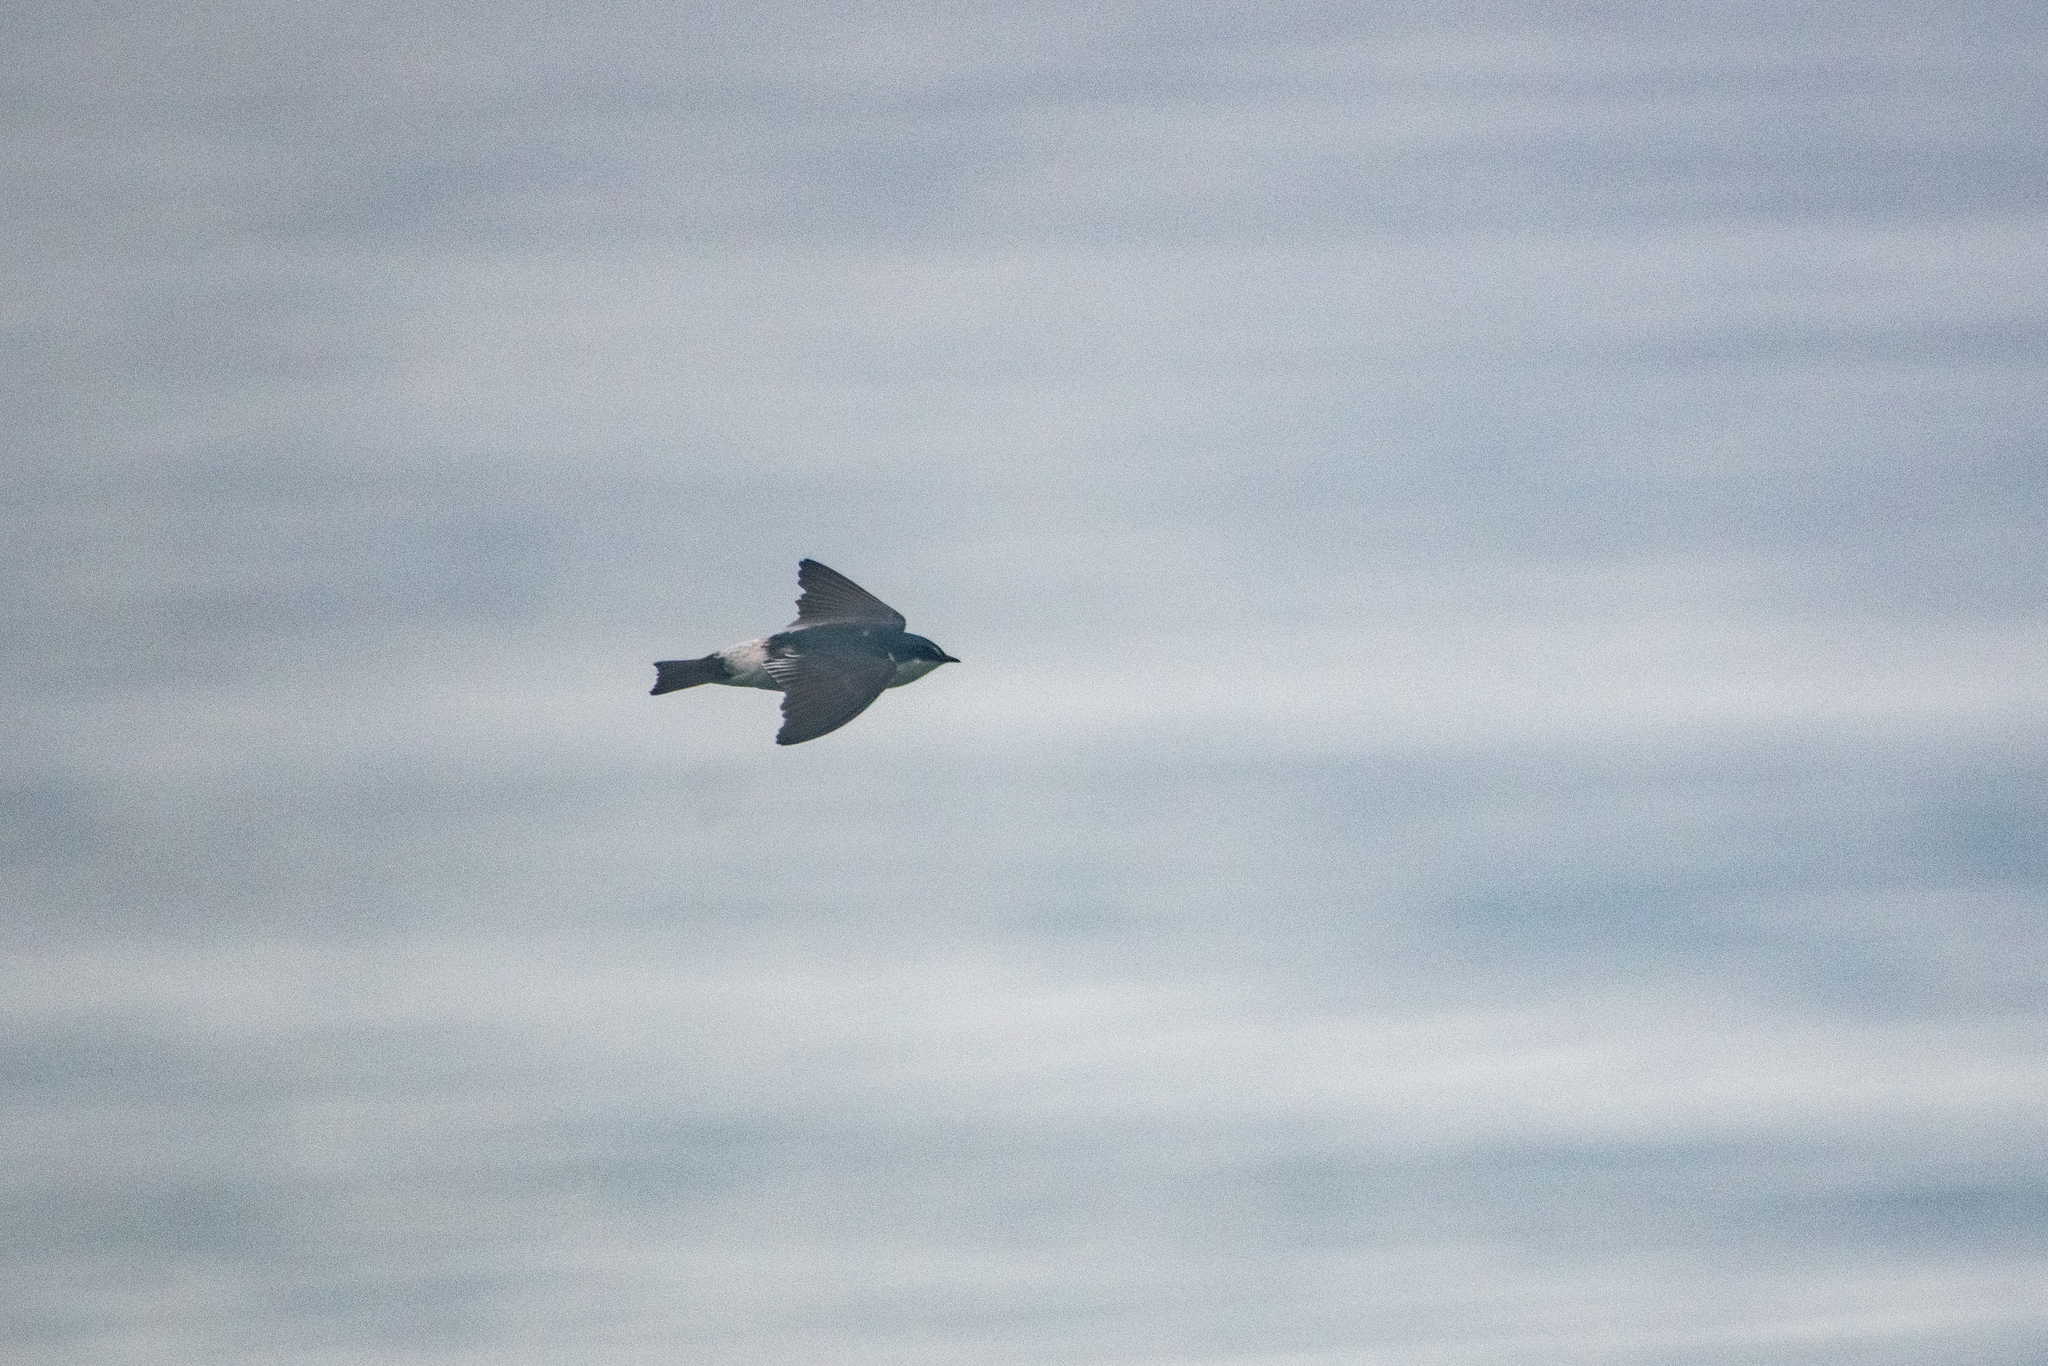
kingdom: Animalia
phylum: Chordata
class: Aves
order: Passeriformes
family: Hirundinidae
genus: Tachycineta
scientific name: Tachycineta albilinea
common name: Mangrove swallow
